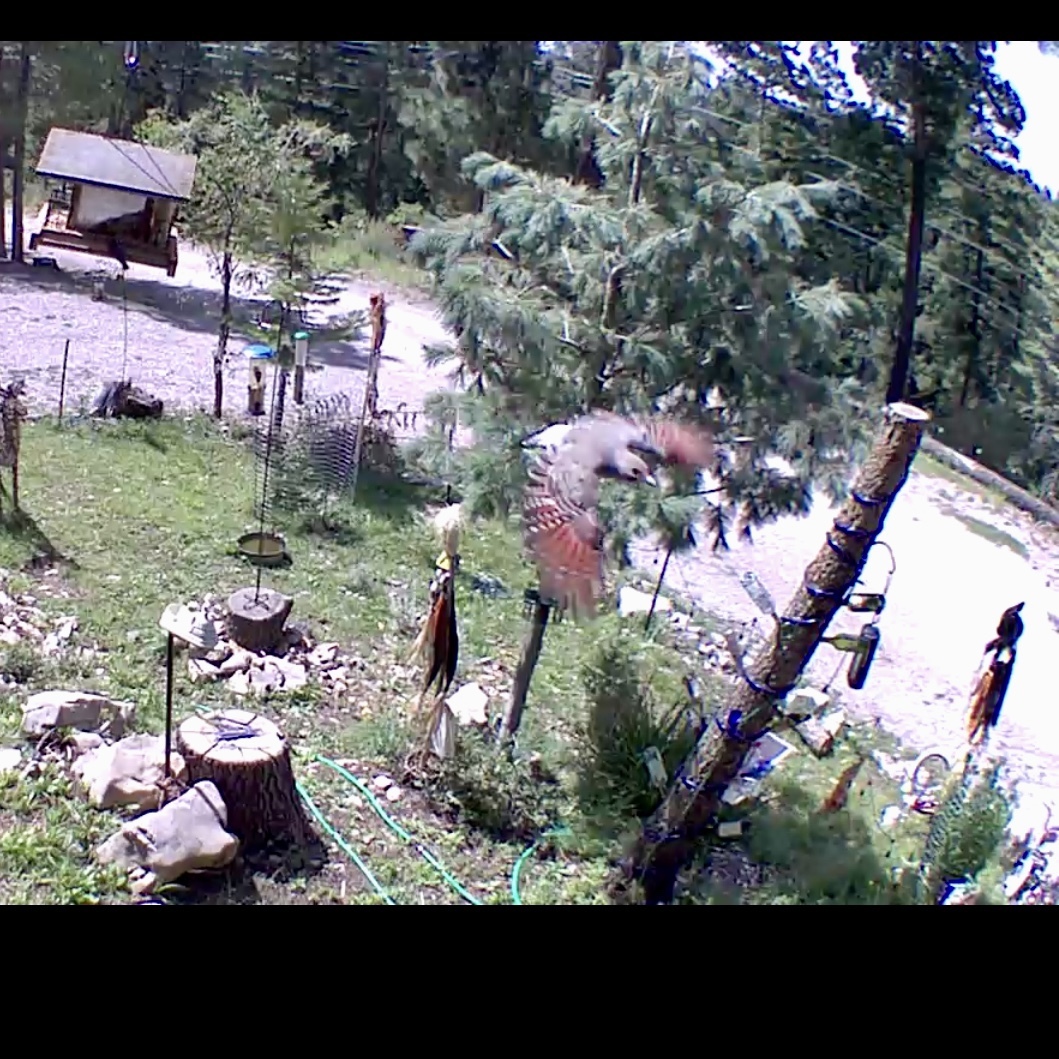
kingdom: Animalia
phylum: Chordata
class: Aves
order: Piciformes
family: Picidae
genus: Colaptes
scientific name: Colaptes auratus
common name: Northern flicker
